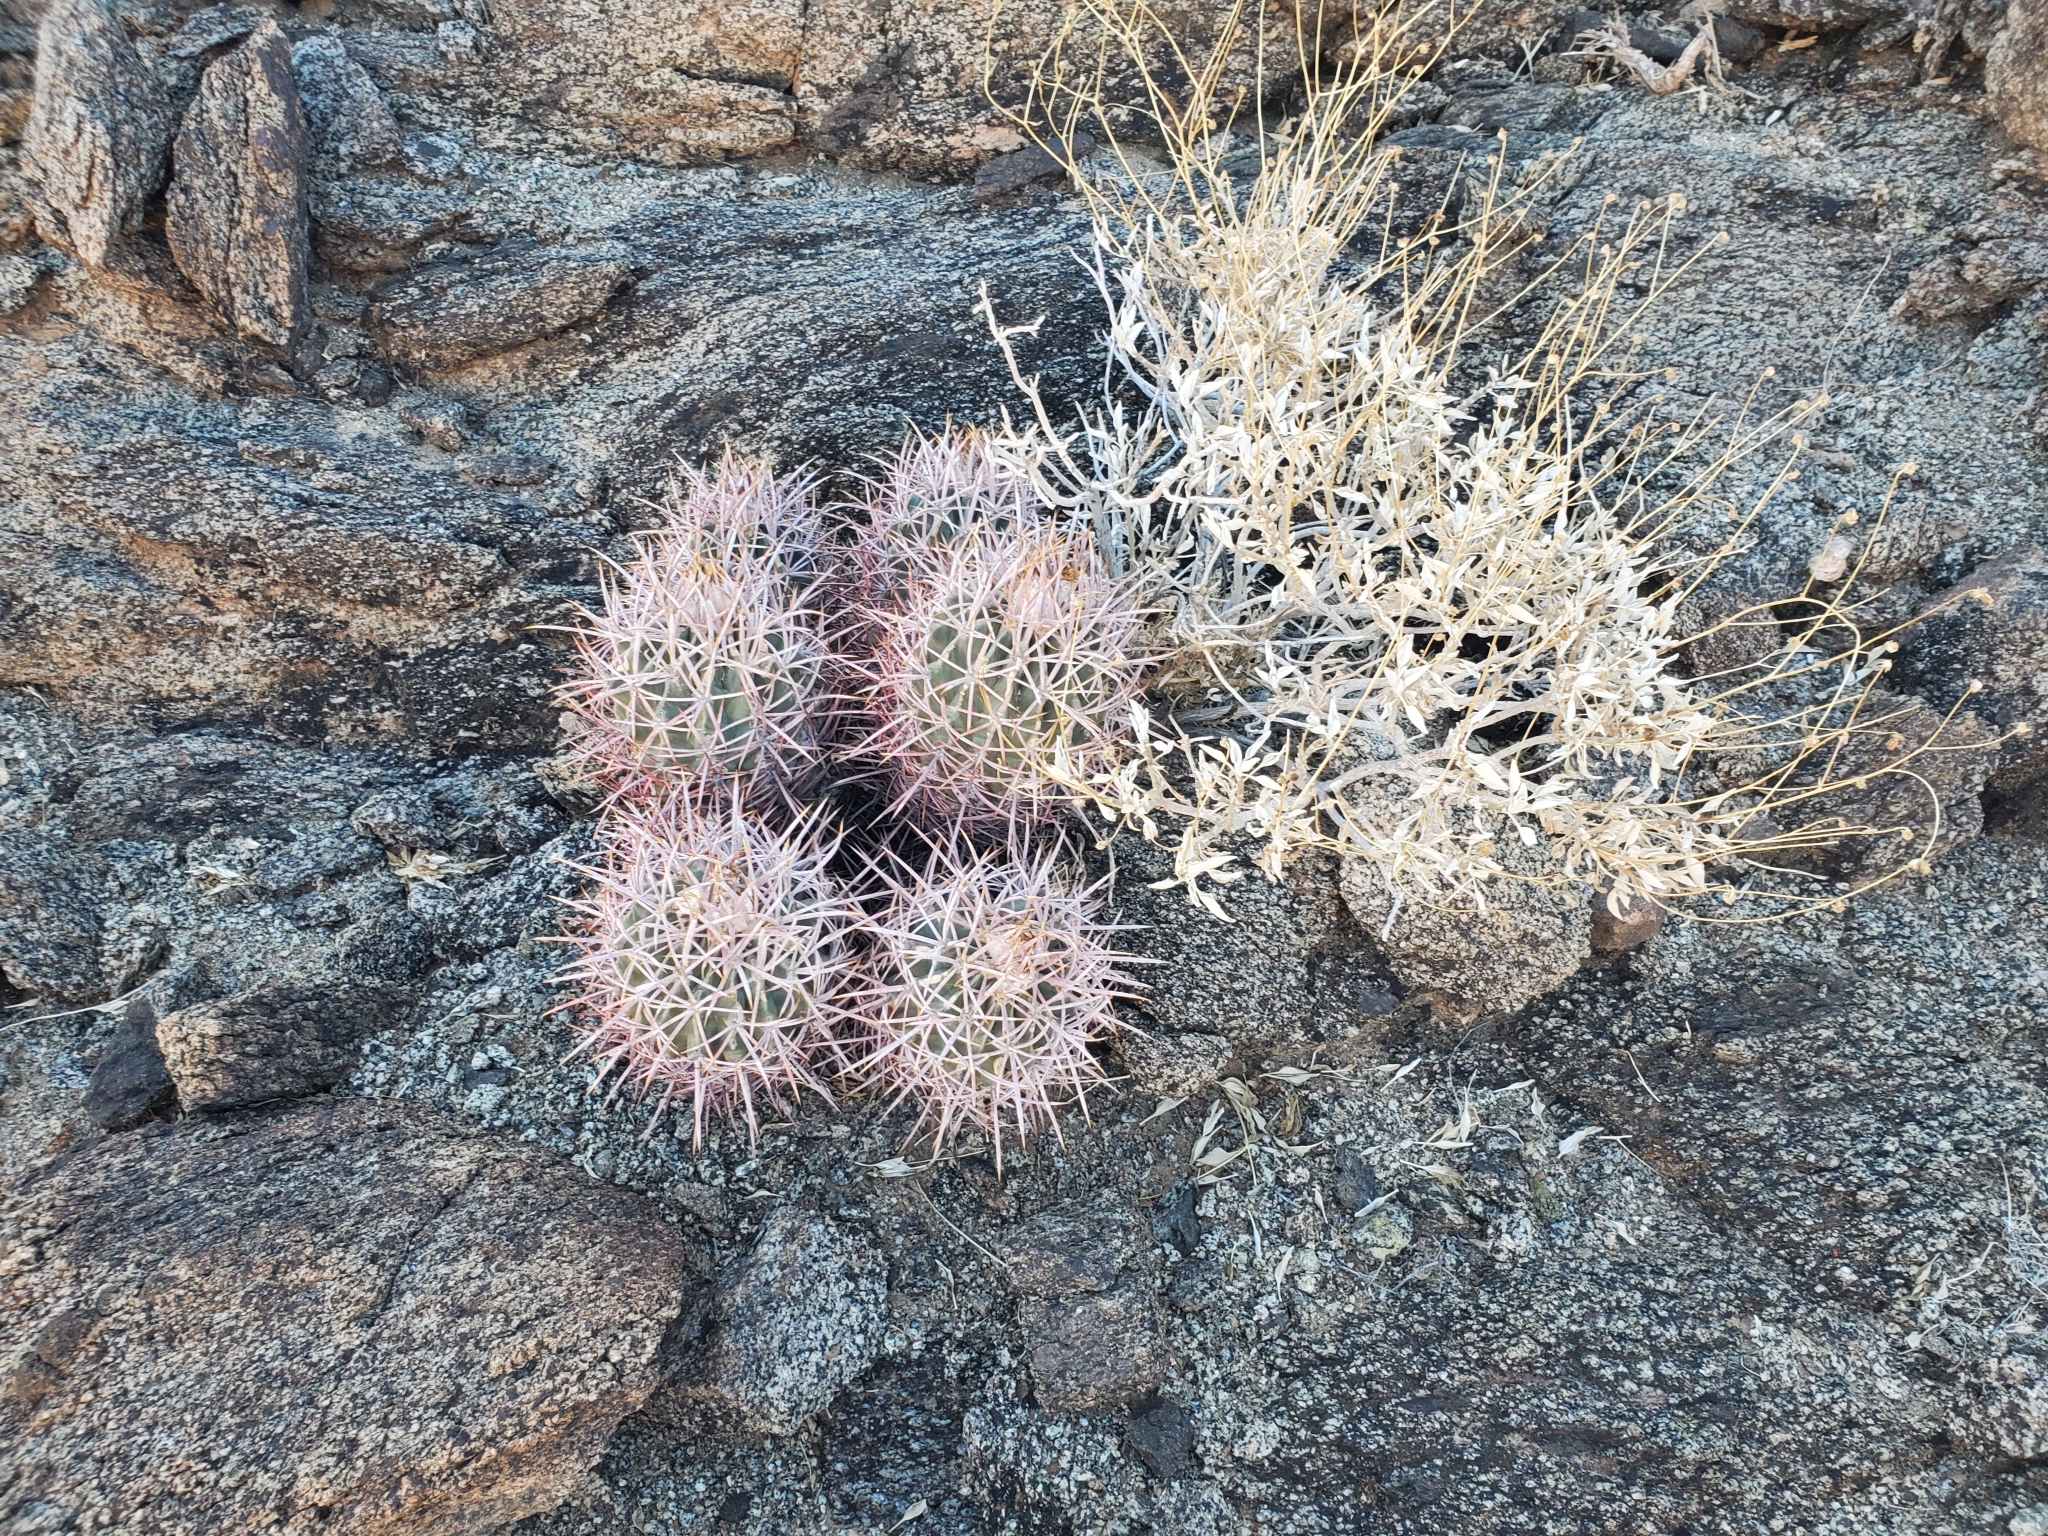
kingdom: Plantae
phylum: Tracheophyta
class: Magnoliopsida
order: Caryophyllales
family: Cactaceae
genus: Echinocactus
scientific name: Echinocactus polycephalus
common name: Cottontop cactus
